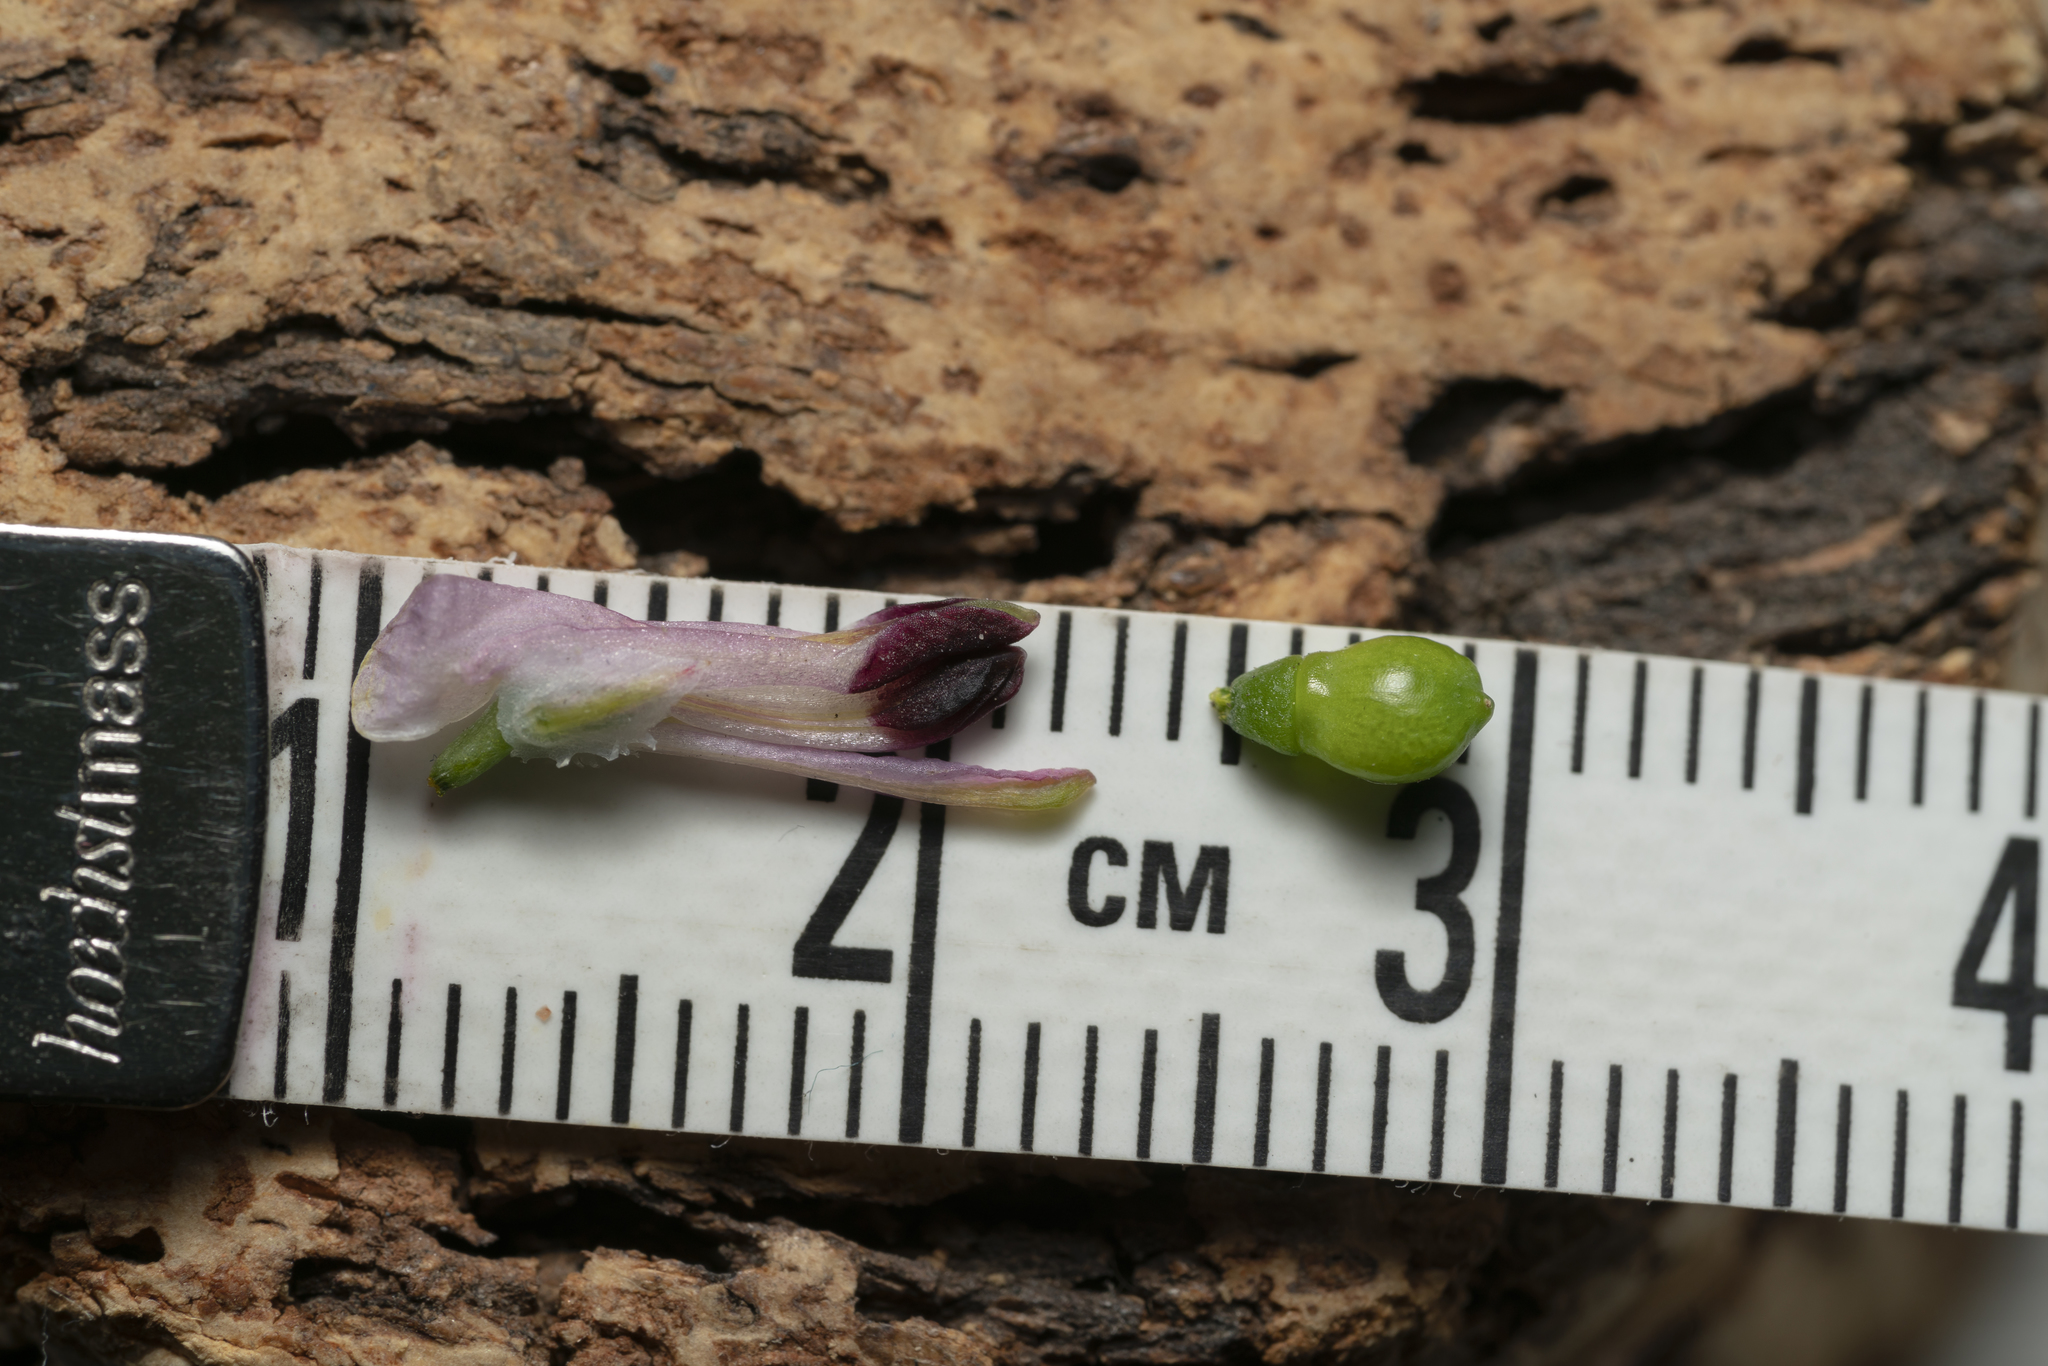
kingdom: Plantae
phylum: Tracheophyta
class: Magnoliopsida
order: Ranunculales
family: Papaveraceae
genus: Fumaria
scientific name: Fumaria gaillardotii
